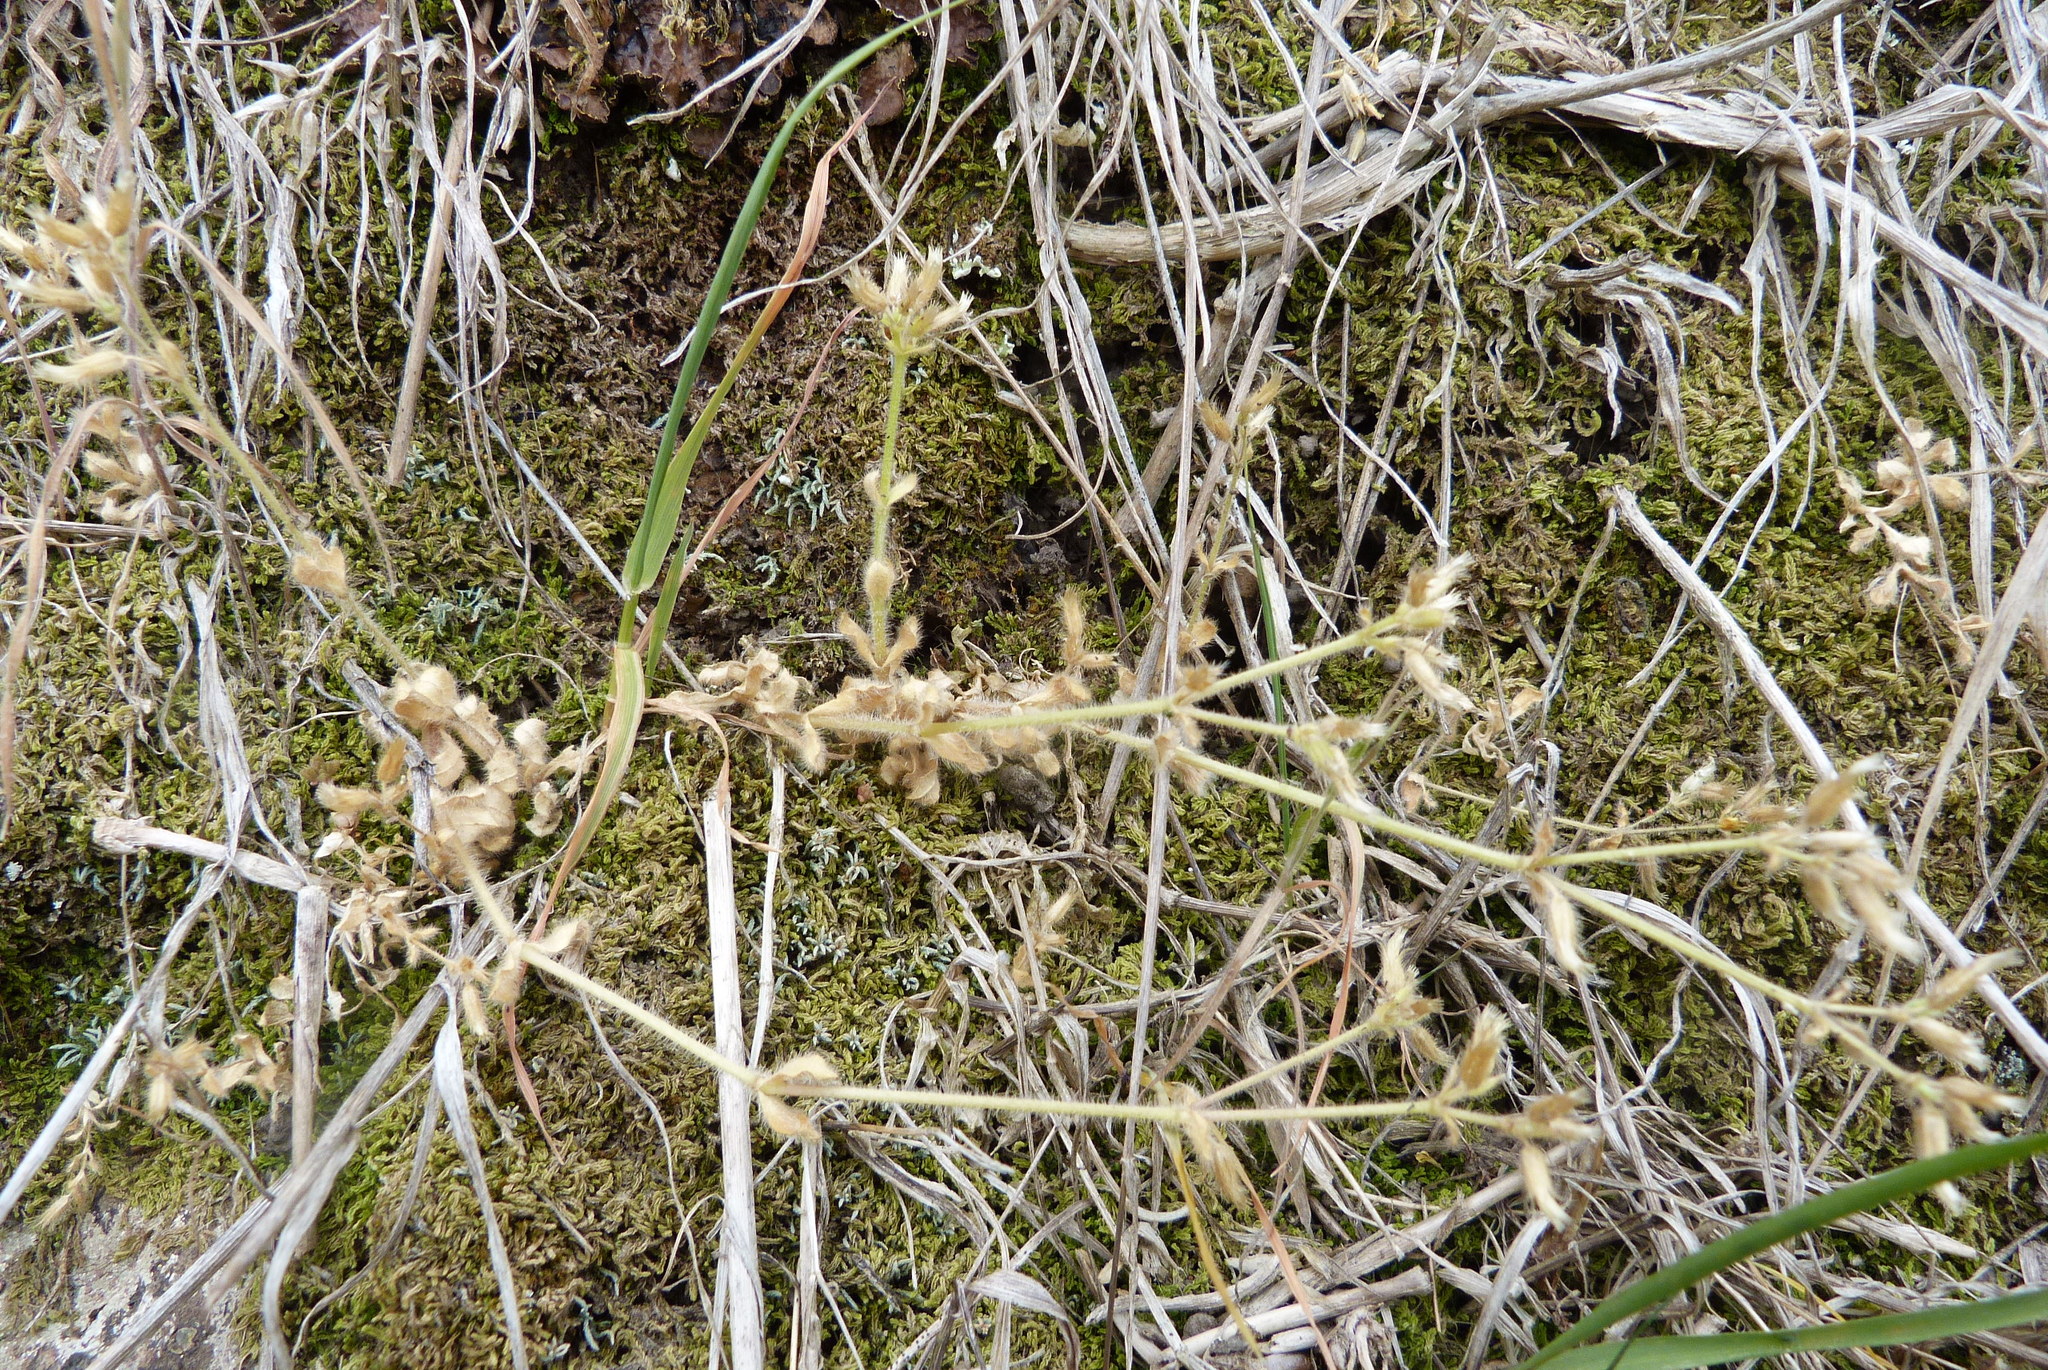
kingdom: Plantae
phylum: Tracheophyta
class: Magnoliopsida
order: Caryophyllales
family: Caryophyllaceae
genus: Cerastium
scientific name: Cerastium semidecandrum
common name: Little mouse-ear
